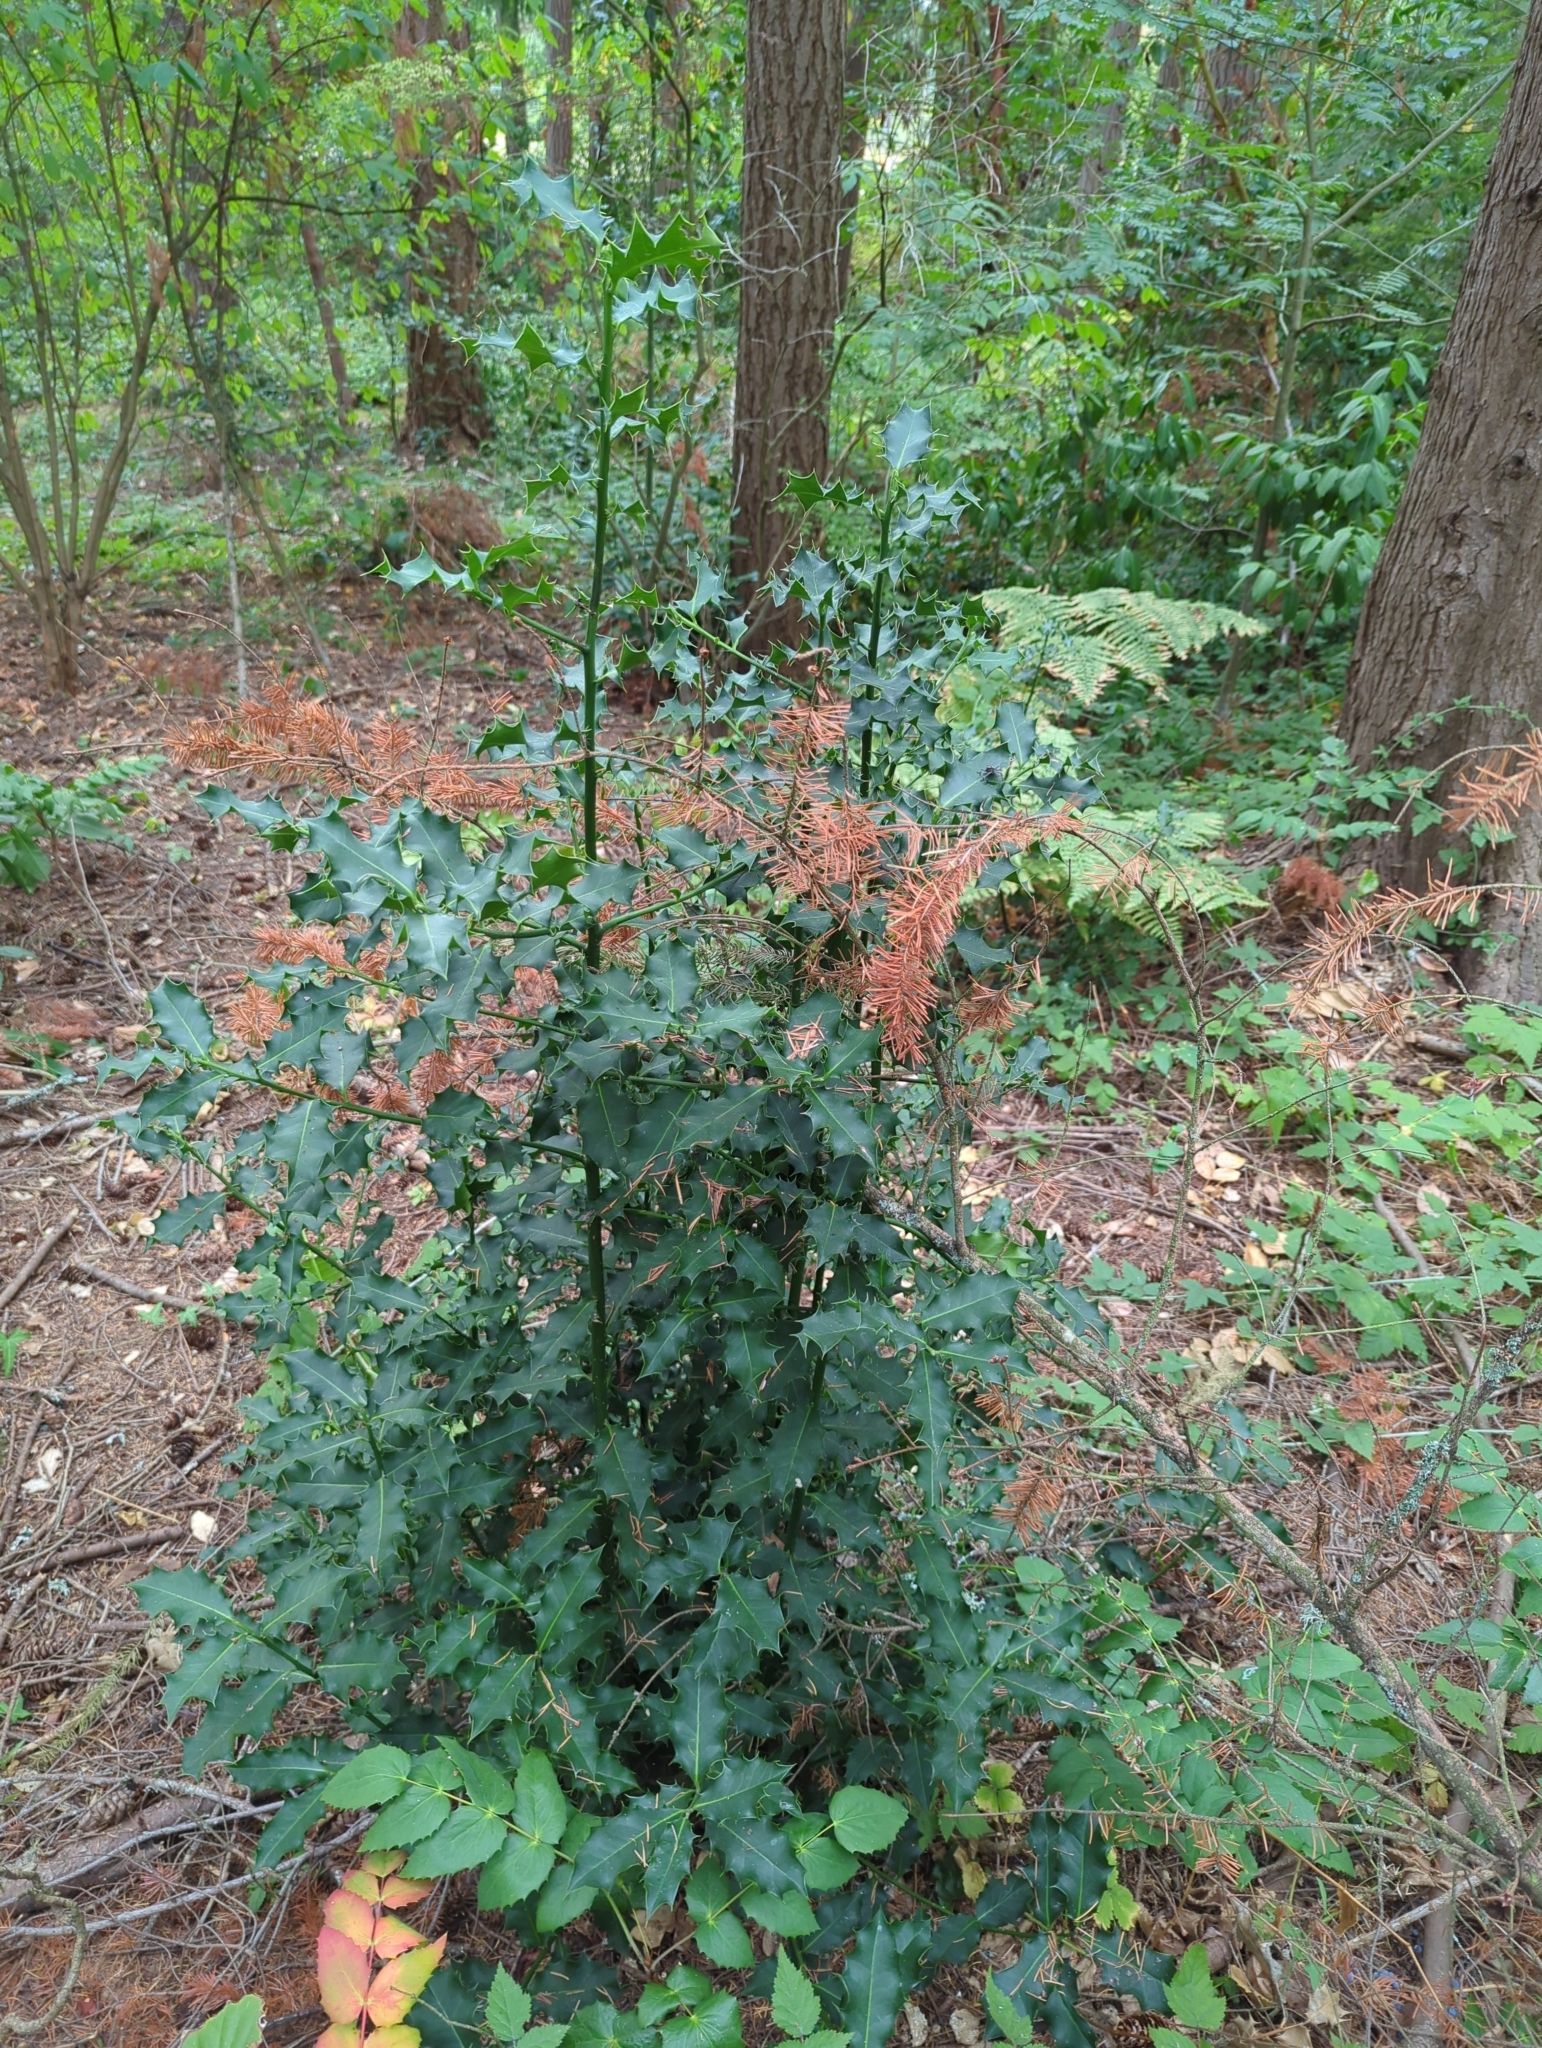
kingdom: Plantae
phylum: Tracheophyta
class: Magnoliopsida
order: Aquifoliales
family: Aquifoliaceae
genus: Ilex
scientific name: Ilex aquifolium
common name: English holly
